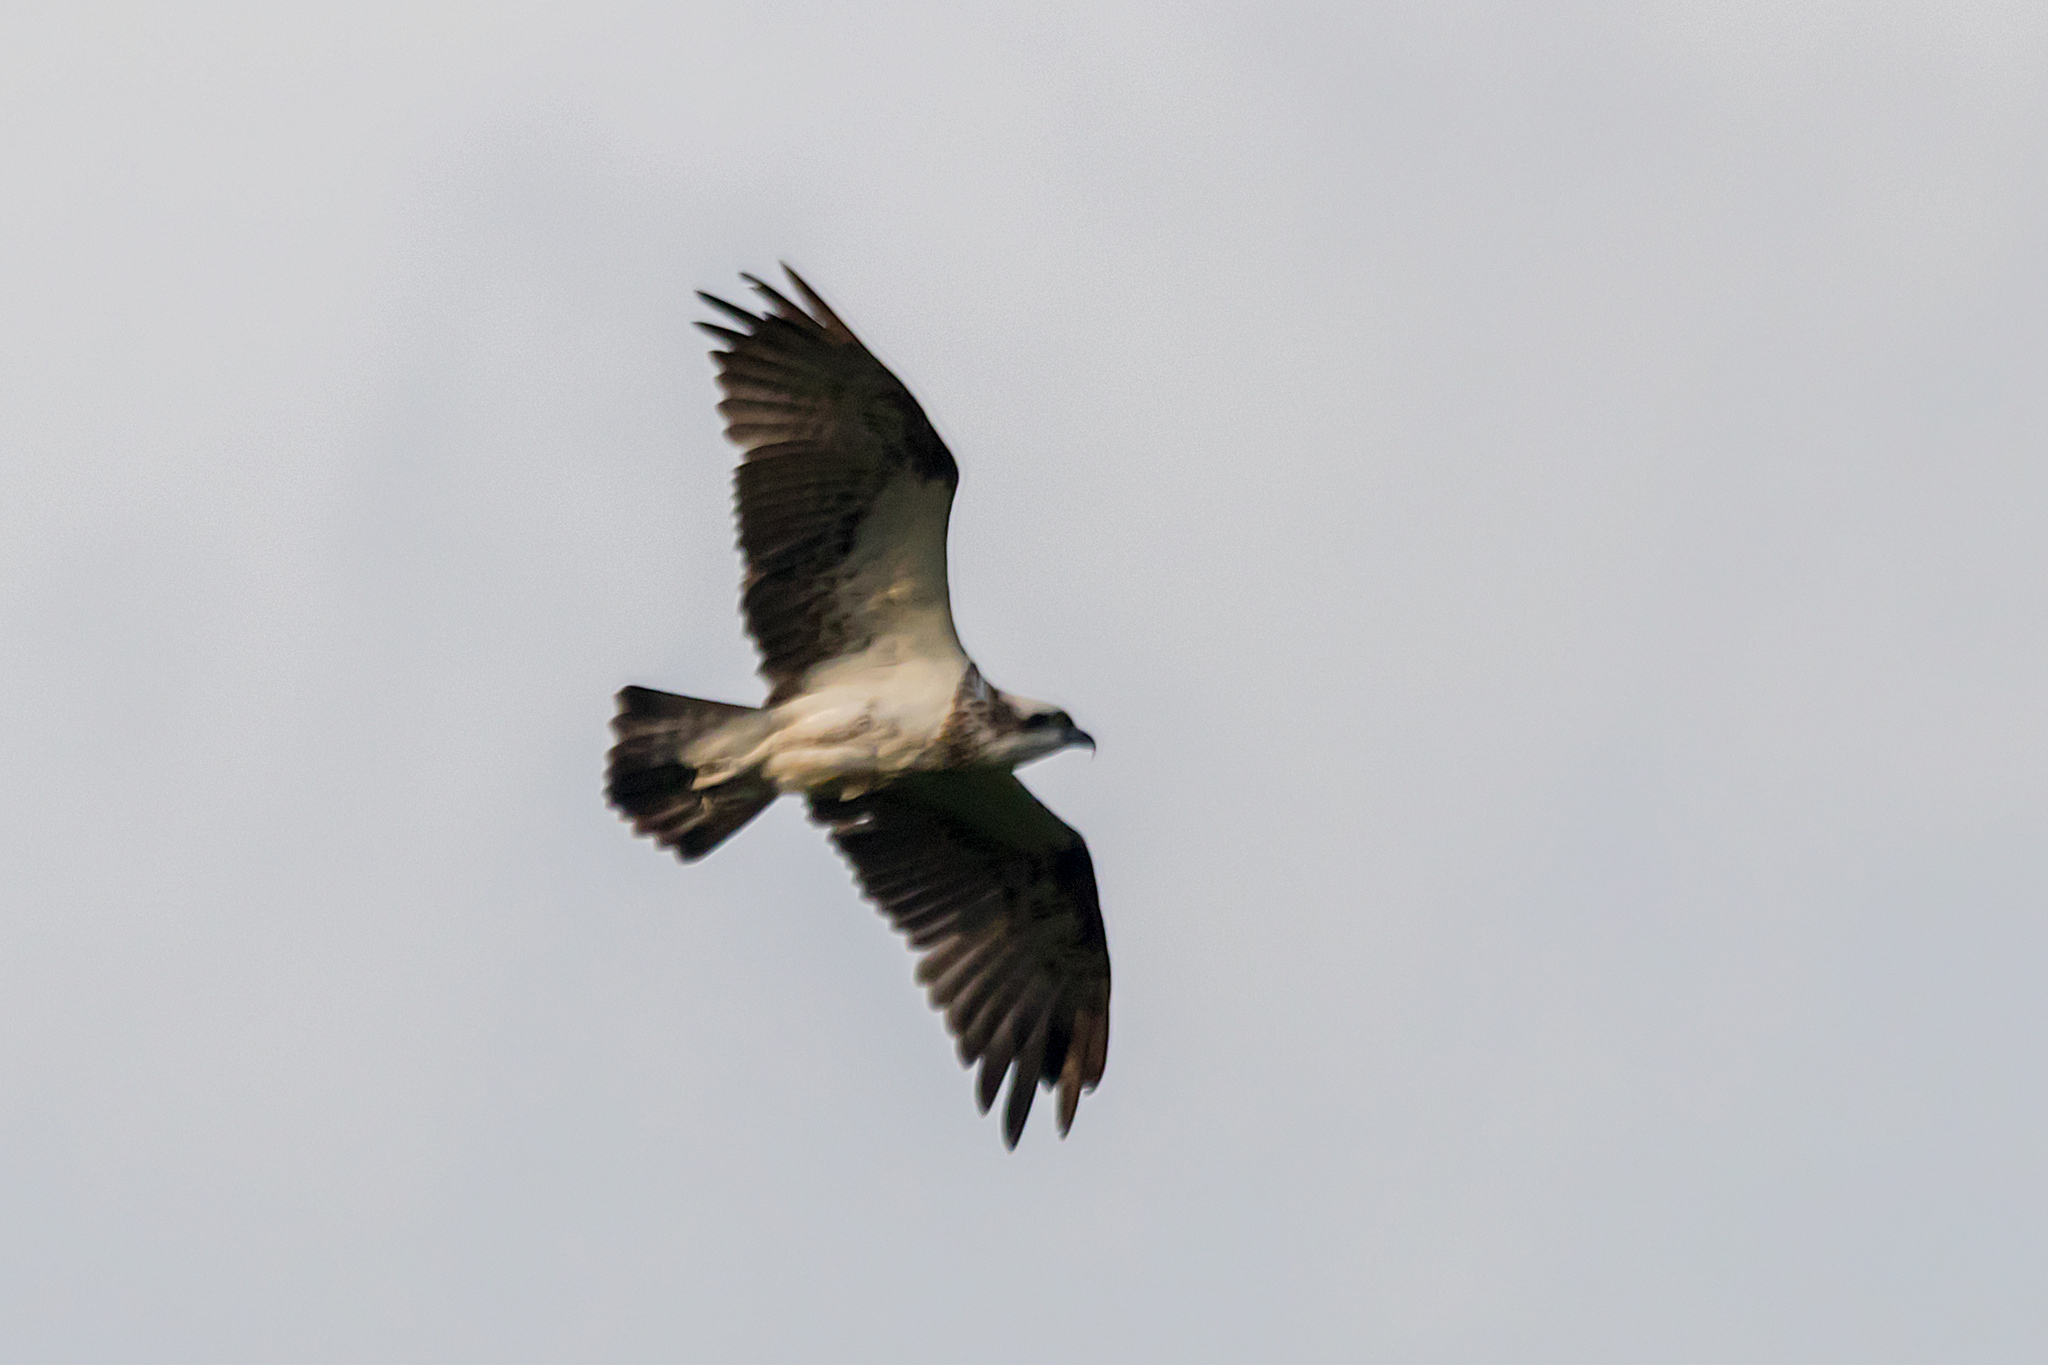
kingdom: Animalia
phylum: Chordata
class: Aves
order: Accipitriformes
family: Pandionidae
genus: Pandion
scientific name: Pandion cristatus
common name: Eastern osprey
